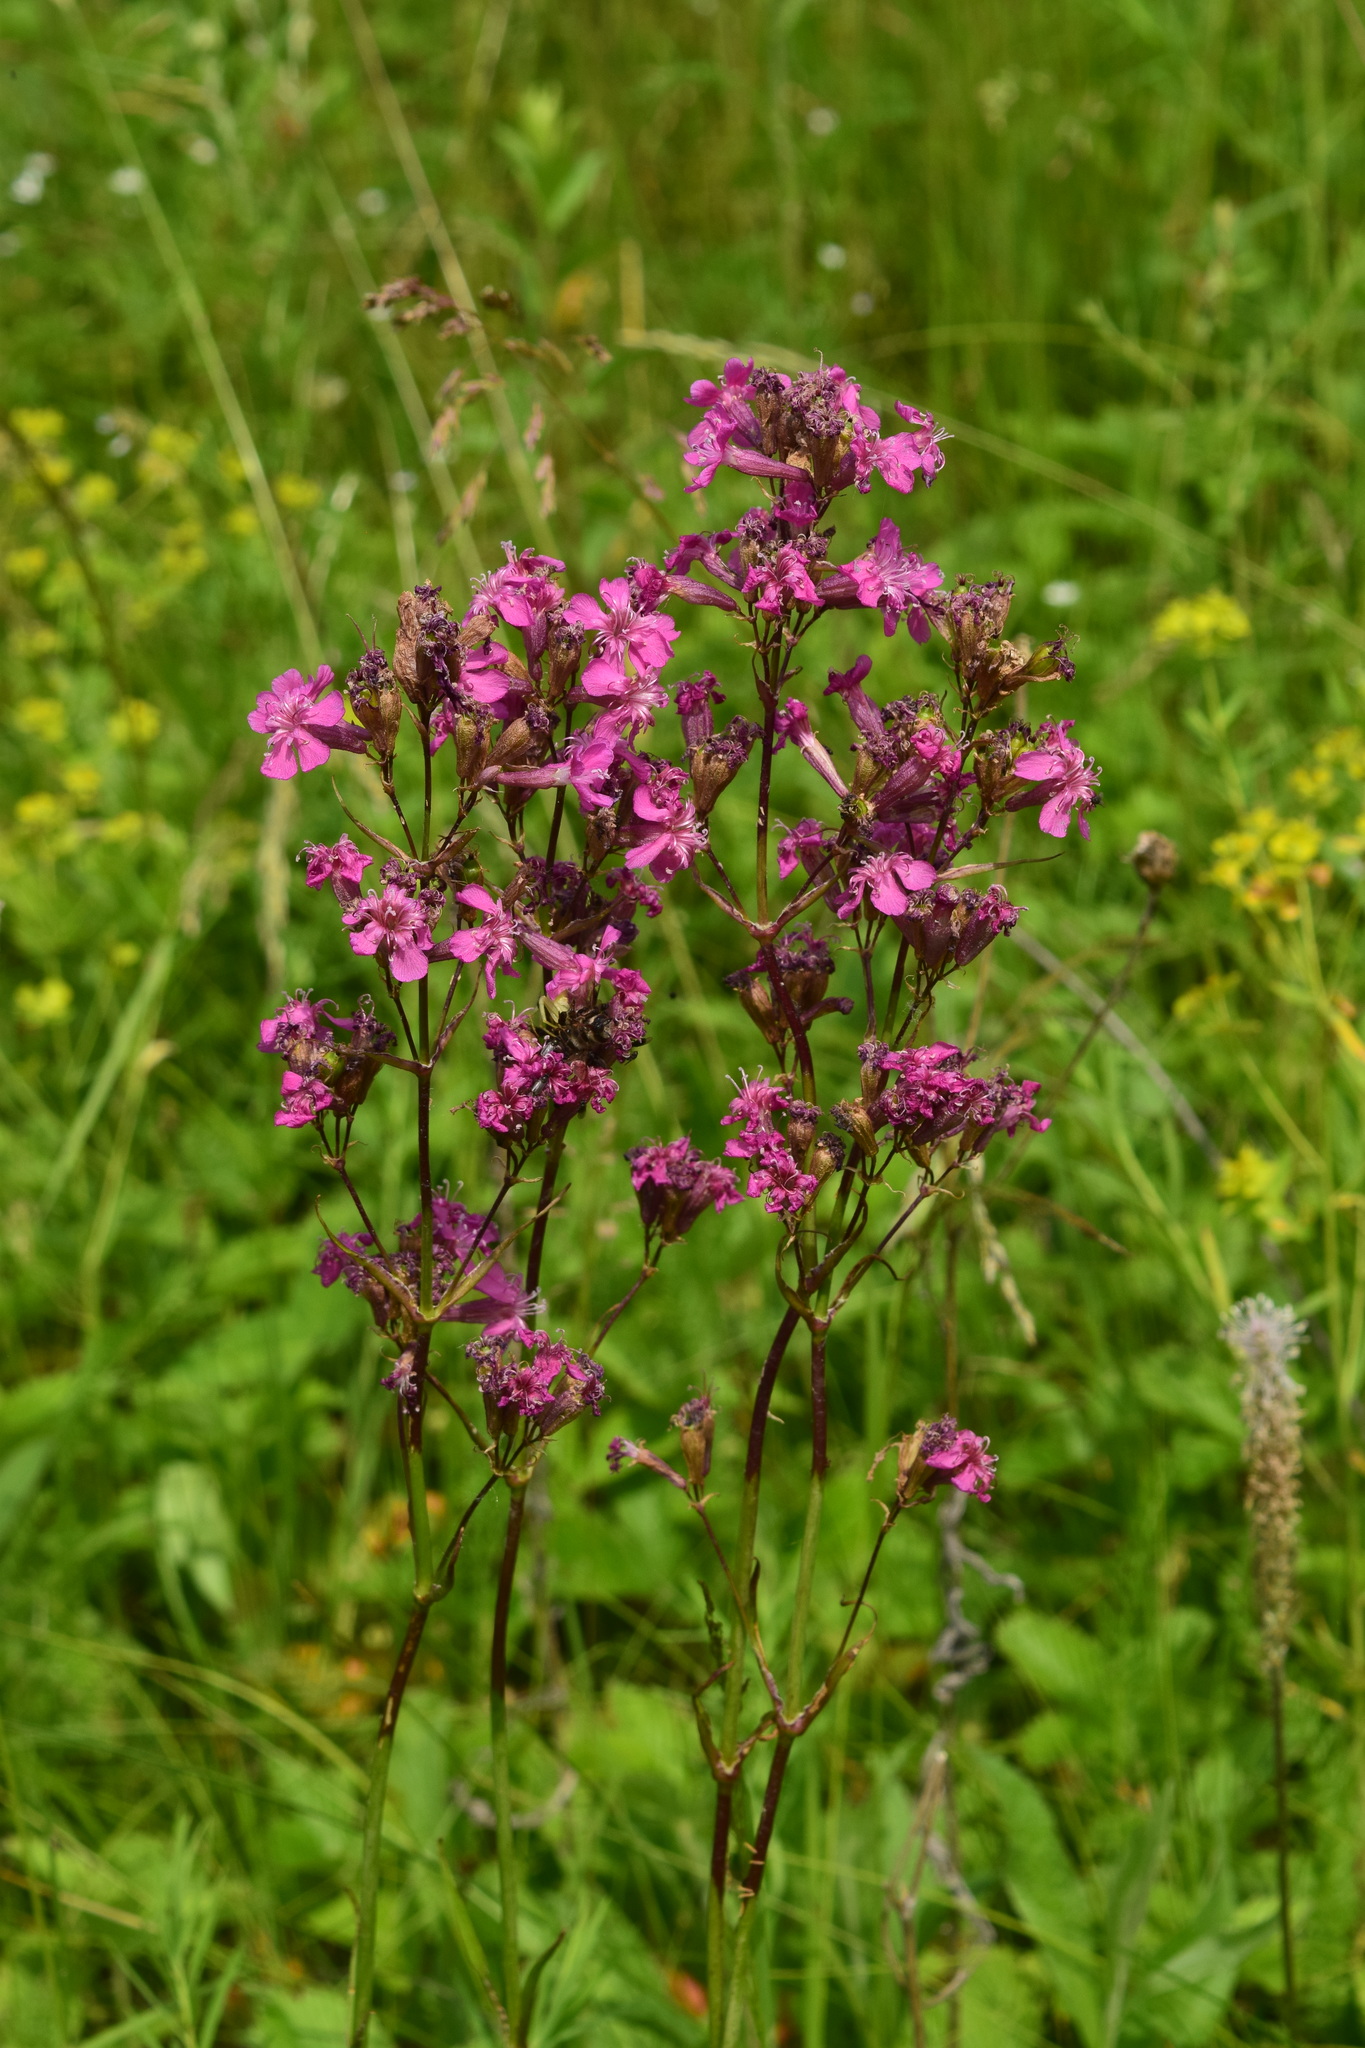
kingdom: Plantae
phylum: Tracheophyta
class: Magnoliopsida
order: Caryophyllales
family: Caryophyllaceae
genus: Viscaria
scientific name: Viscaria vulgaris
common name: Clammy campion
